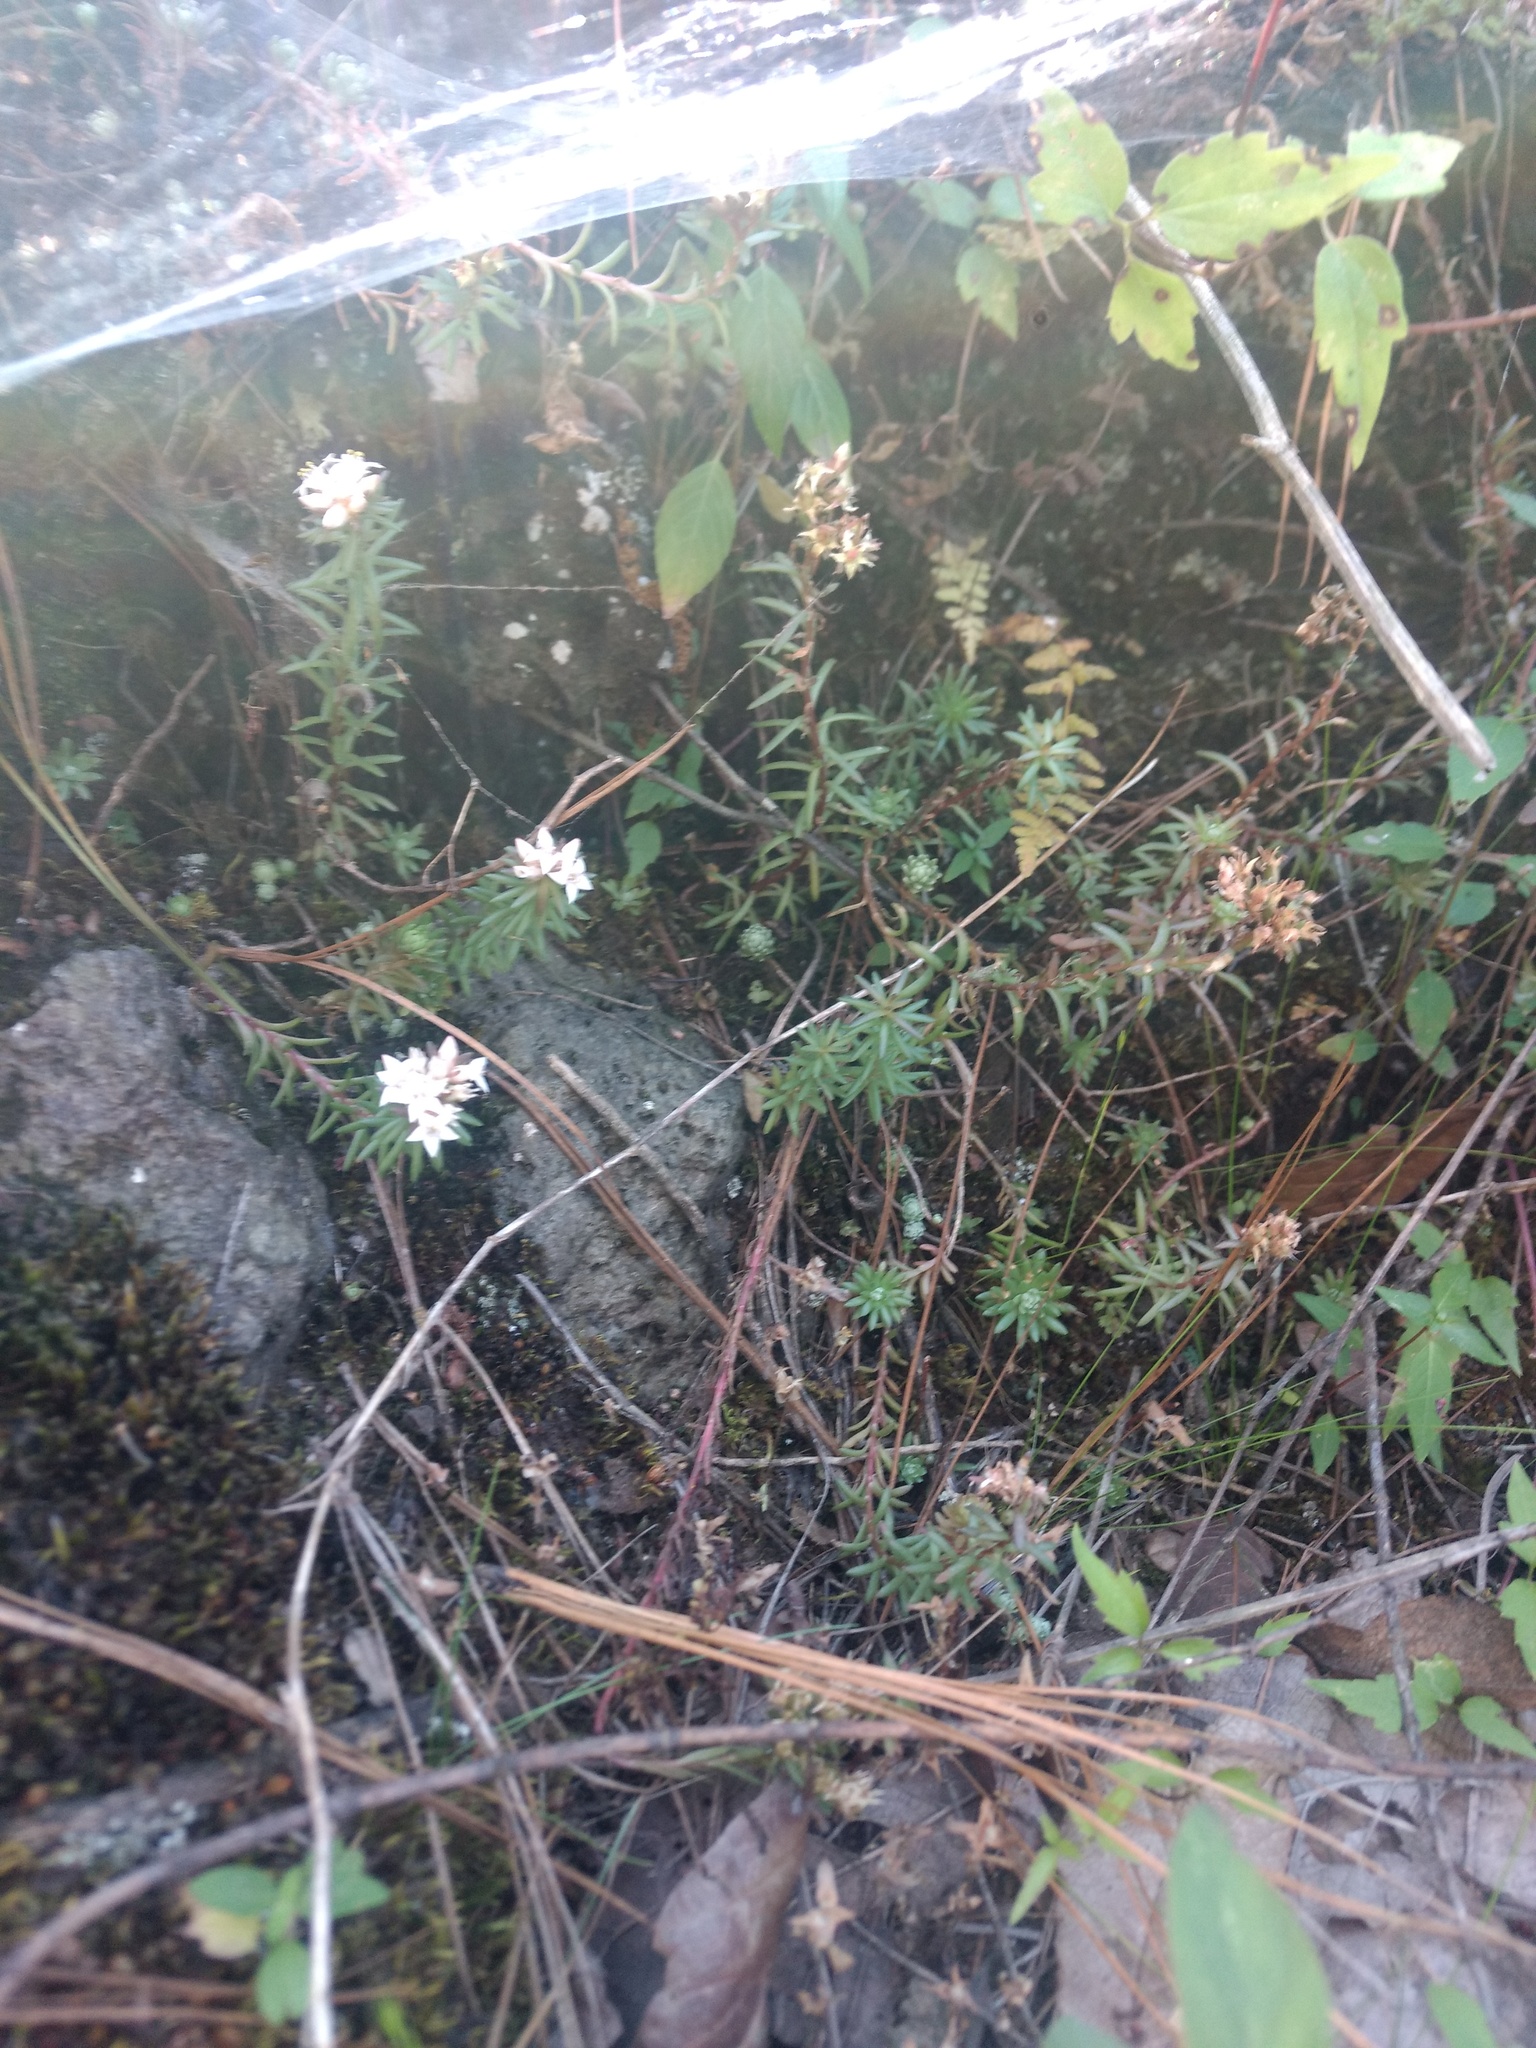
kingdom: Plantae
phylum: Tracheophyta
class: Magnoliopsida
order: Saxifragales
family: Crassulaceae
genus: Sedum
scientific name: Sedum goldmanii
